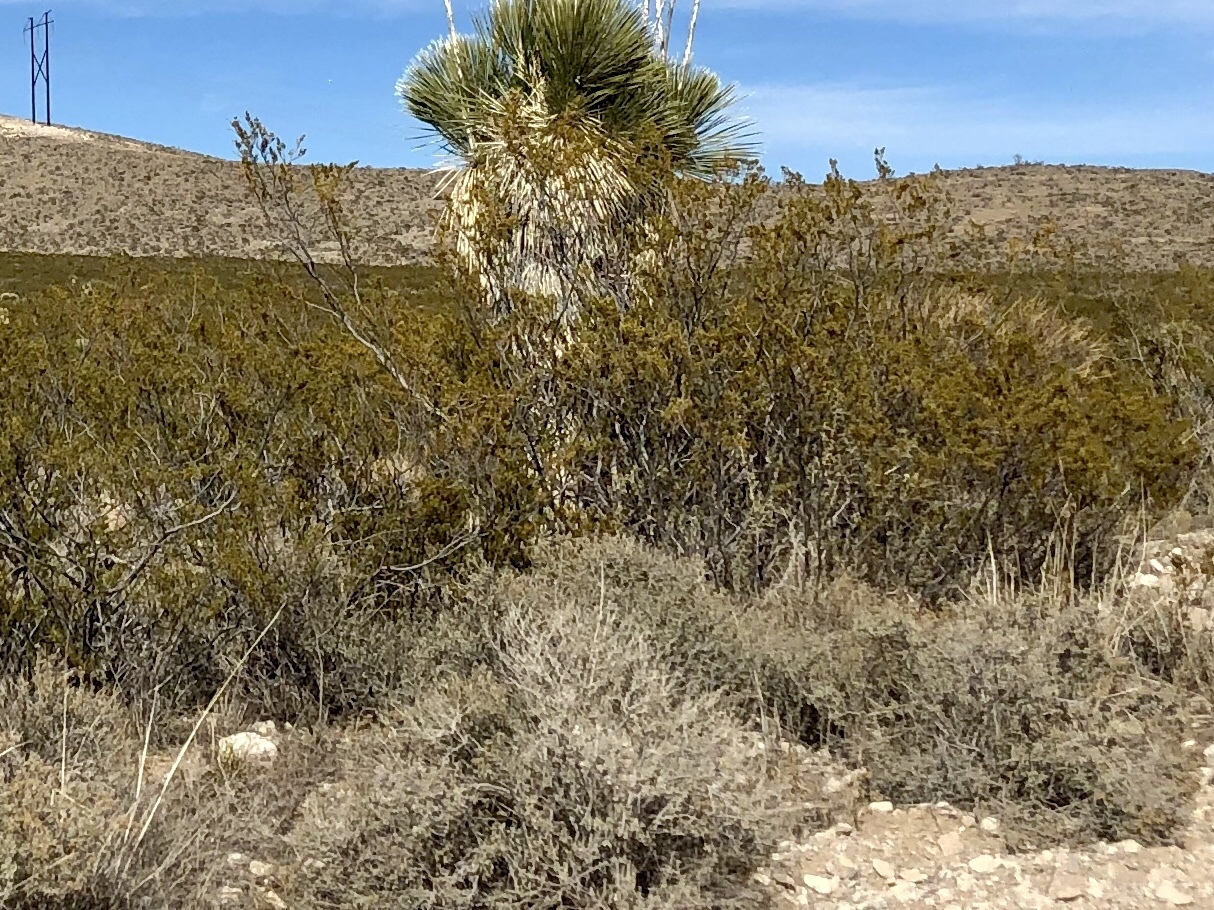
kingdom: Plantae
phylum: Tracheophyta
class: Magnoliopsida
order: Zygophyllales
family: Zygophyllaceae
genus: Larrea
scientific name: Larrea tridentata
